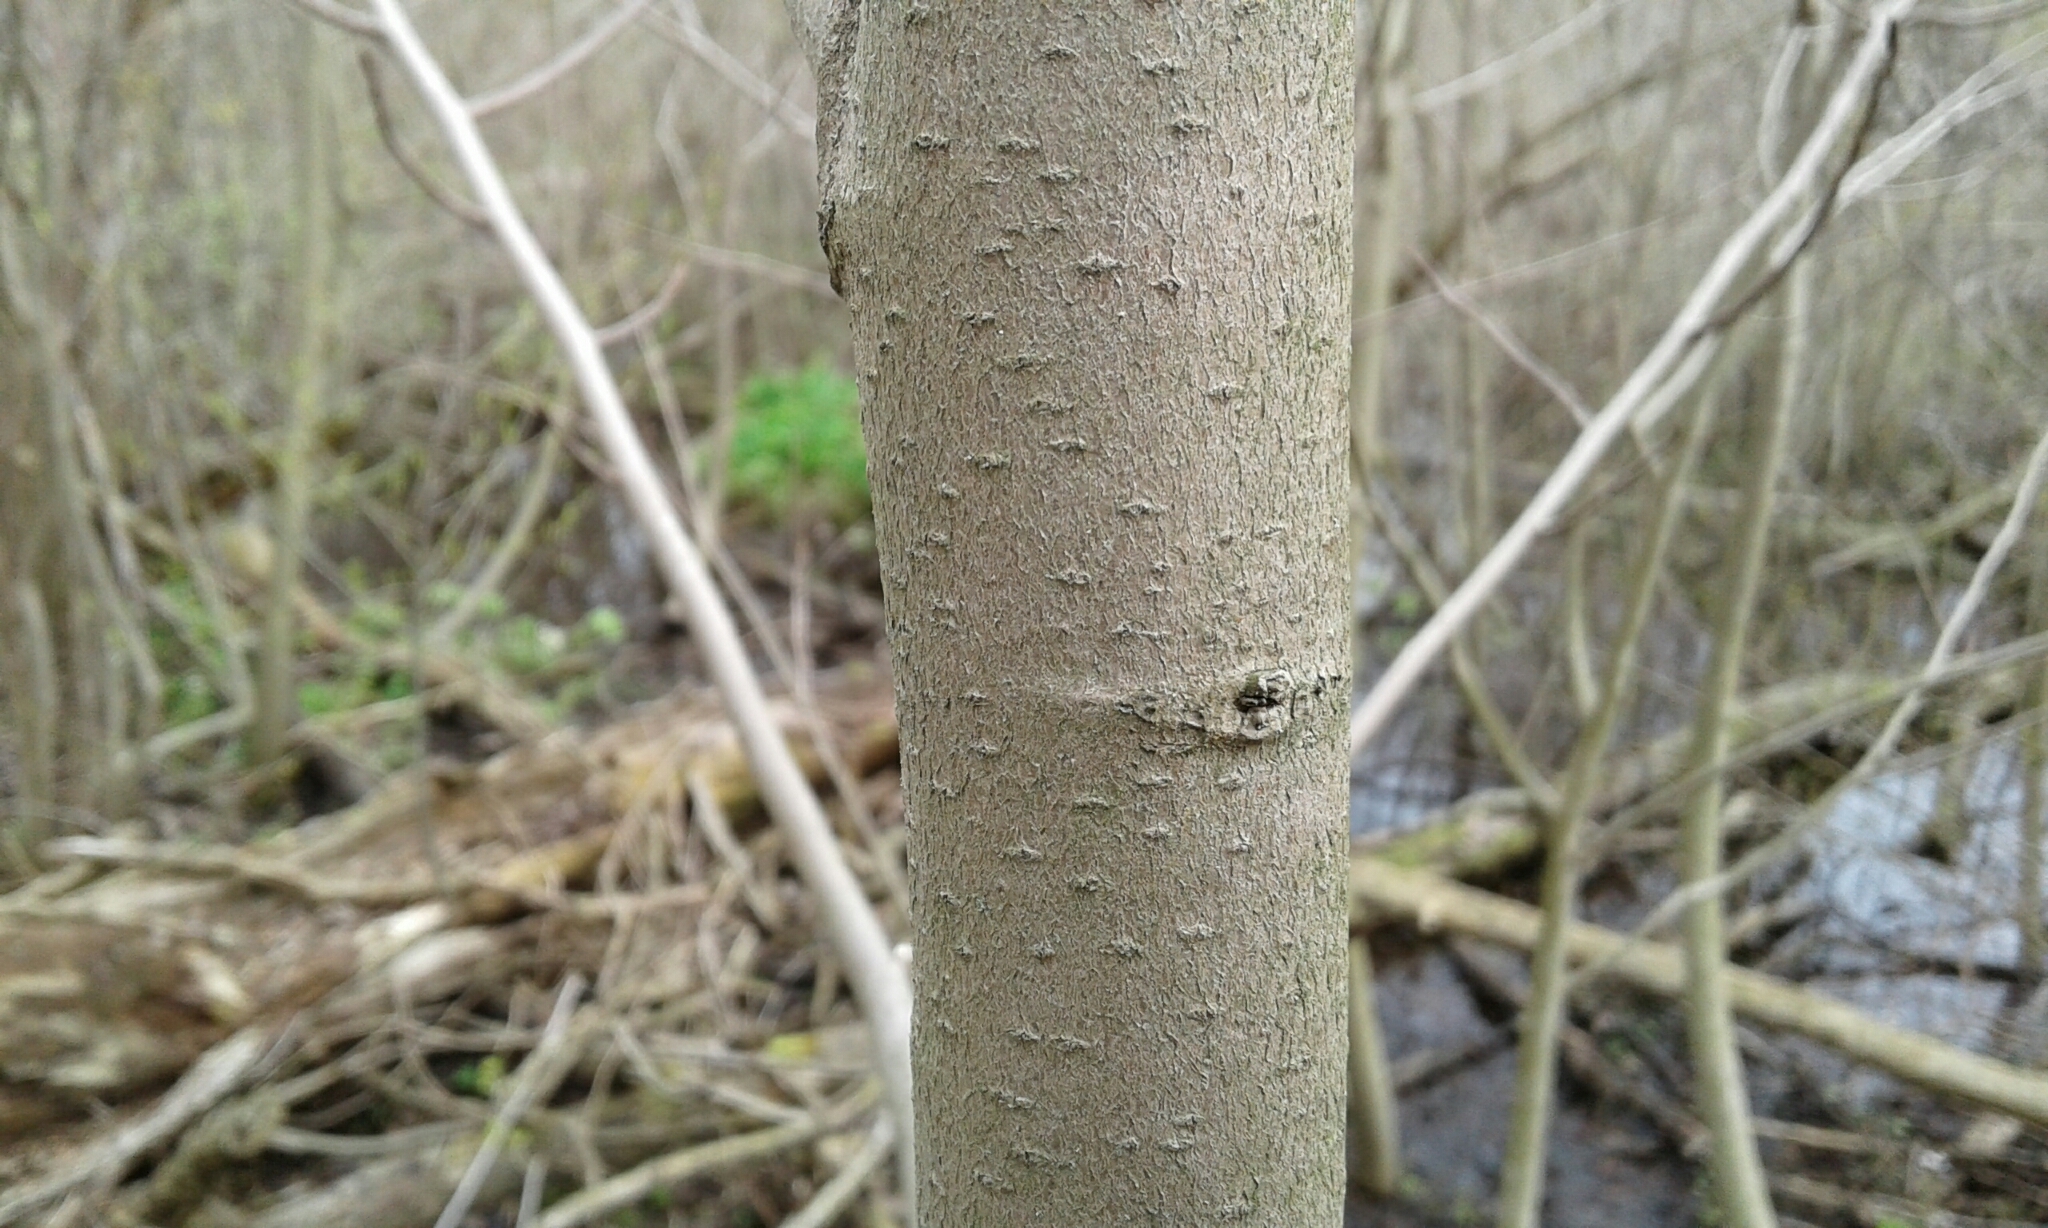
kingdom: Plantae
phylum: Tracheophyta
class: Magnoliopsida
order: Magnoliales
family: Annonaceae
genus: Asimina
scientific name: Asimina triloba
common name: Dog-banana
